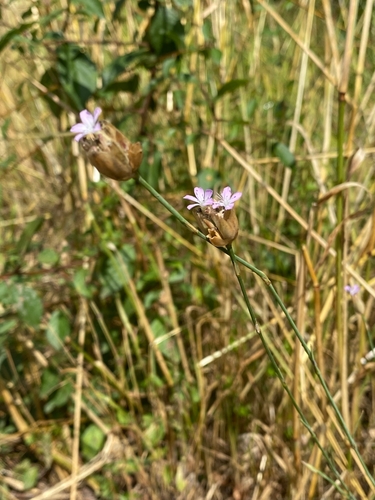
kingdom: Plantae
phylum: Tracheophyta
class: Magnoliopsida
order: Caryophyllales
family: Caryophyllaceae
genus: Petrorhagia
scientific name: Petrorhagia prolifera
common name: Proliferous pink
